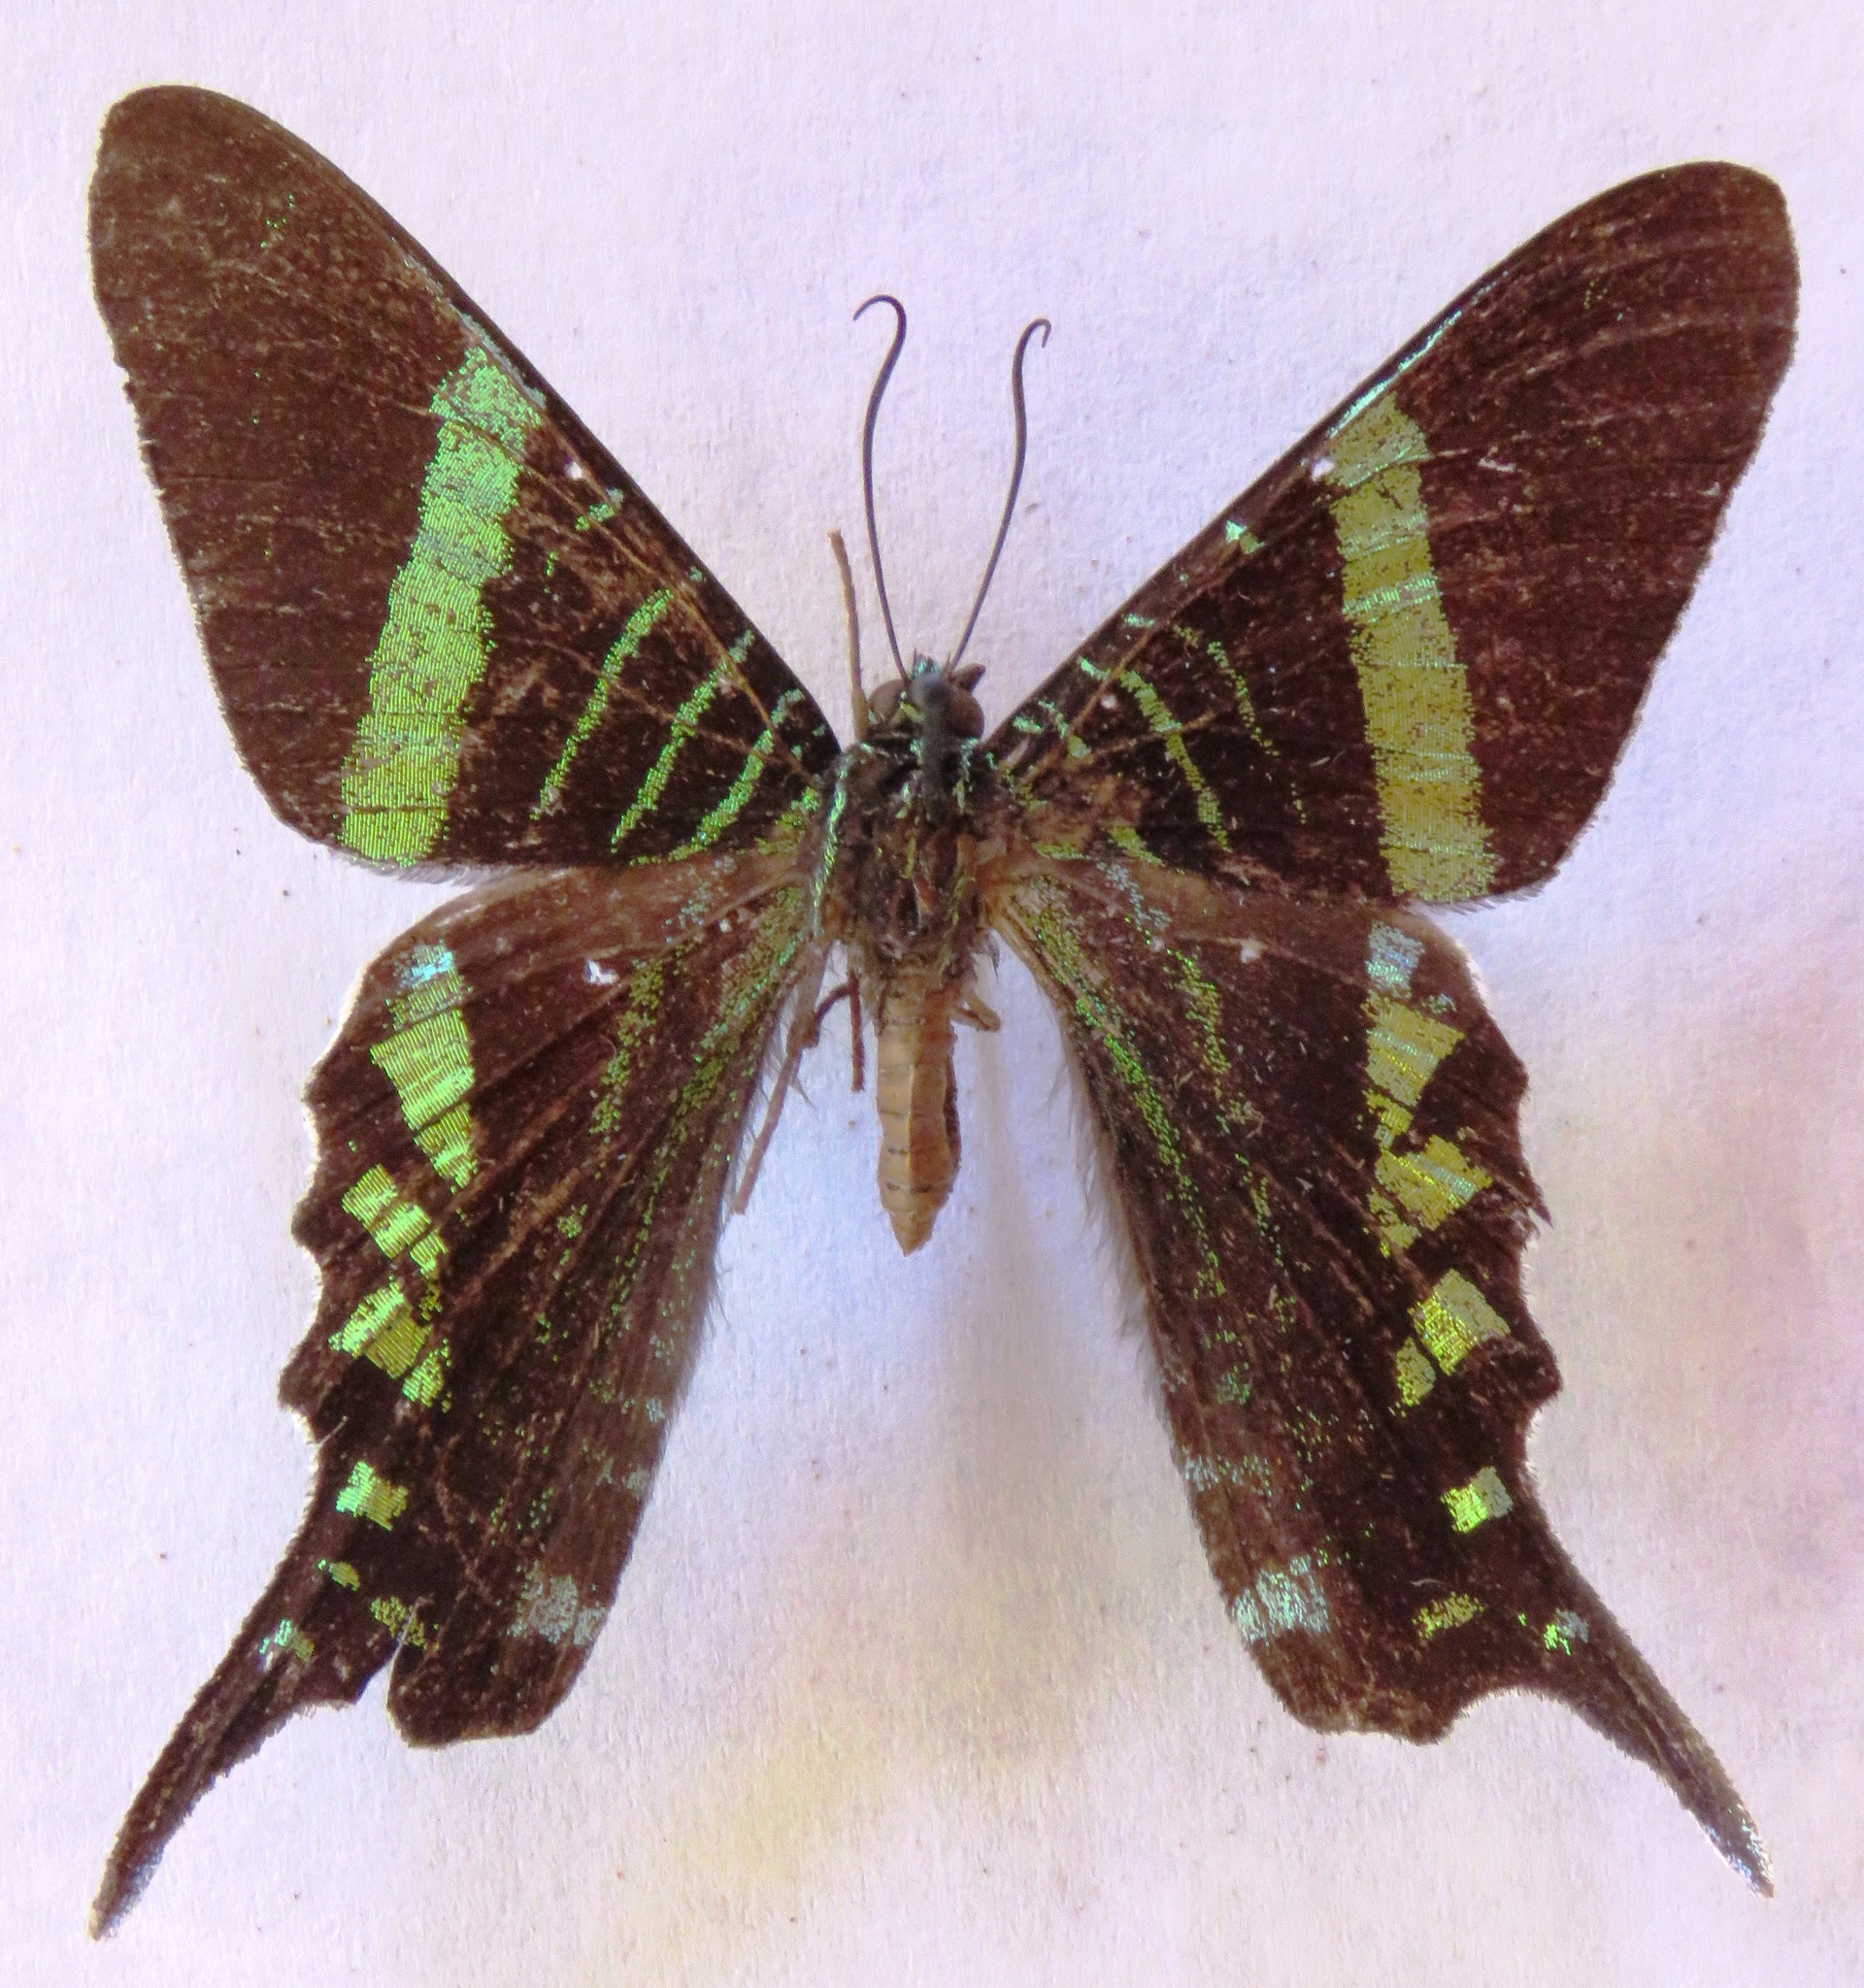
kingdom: Animalia
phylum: Arthropoda
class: Insecta
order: Lepidoptera
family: Uraniidae
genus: Urania
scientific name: Urania fulgens
